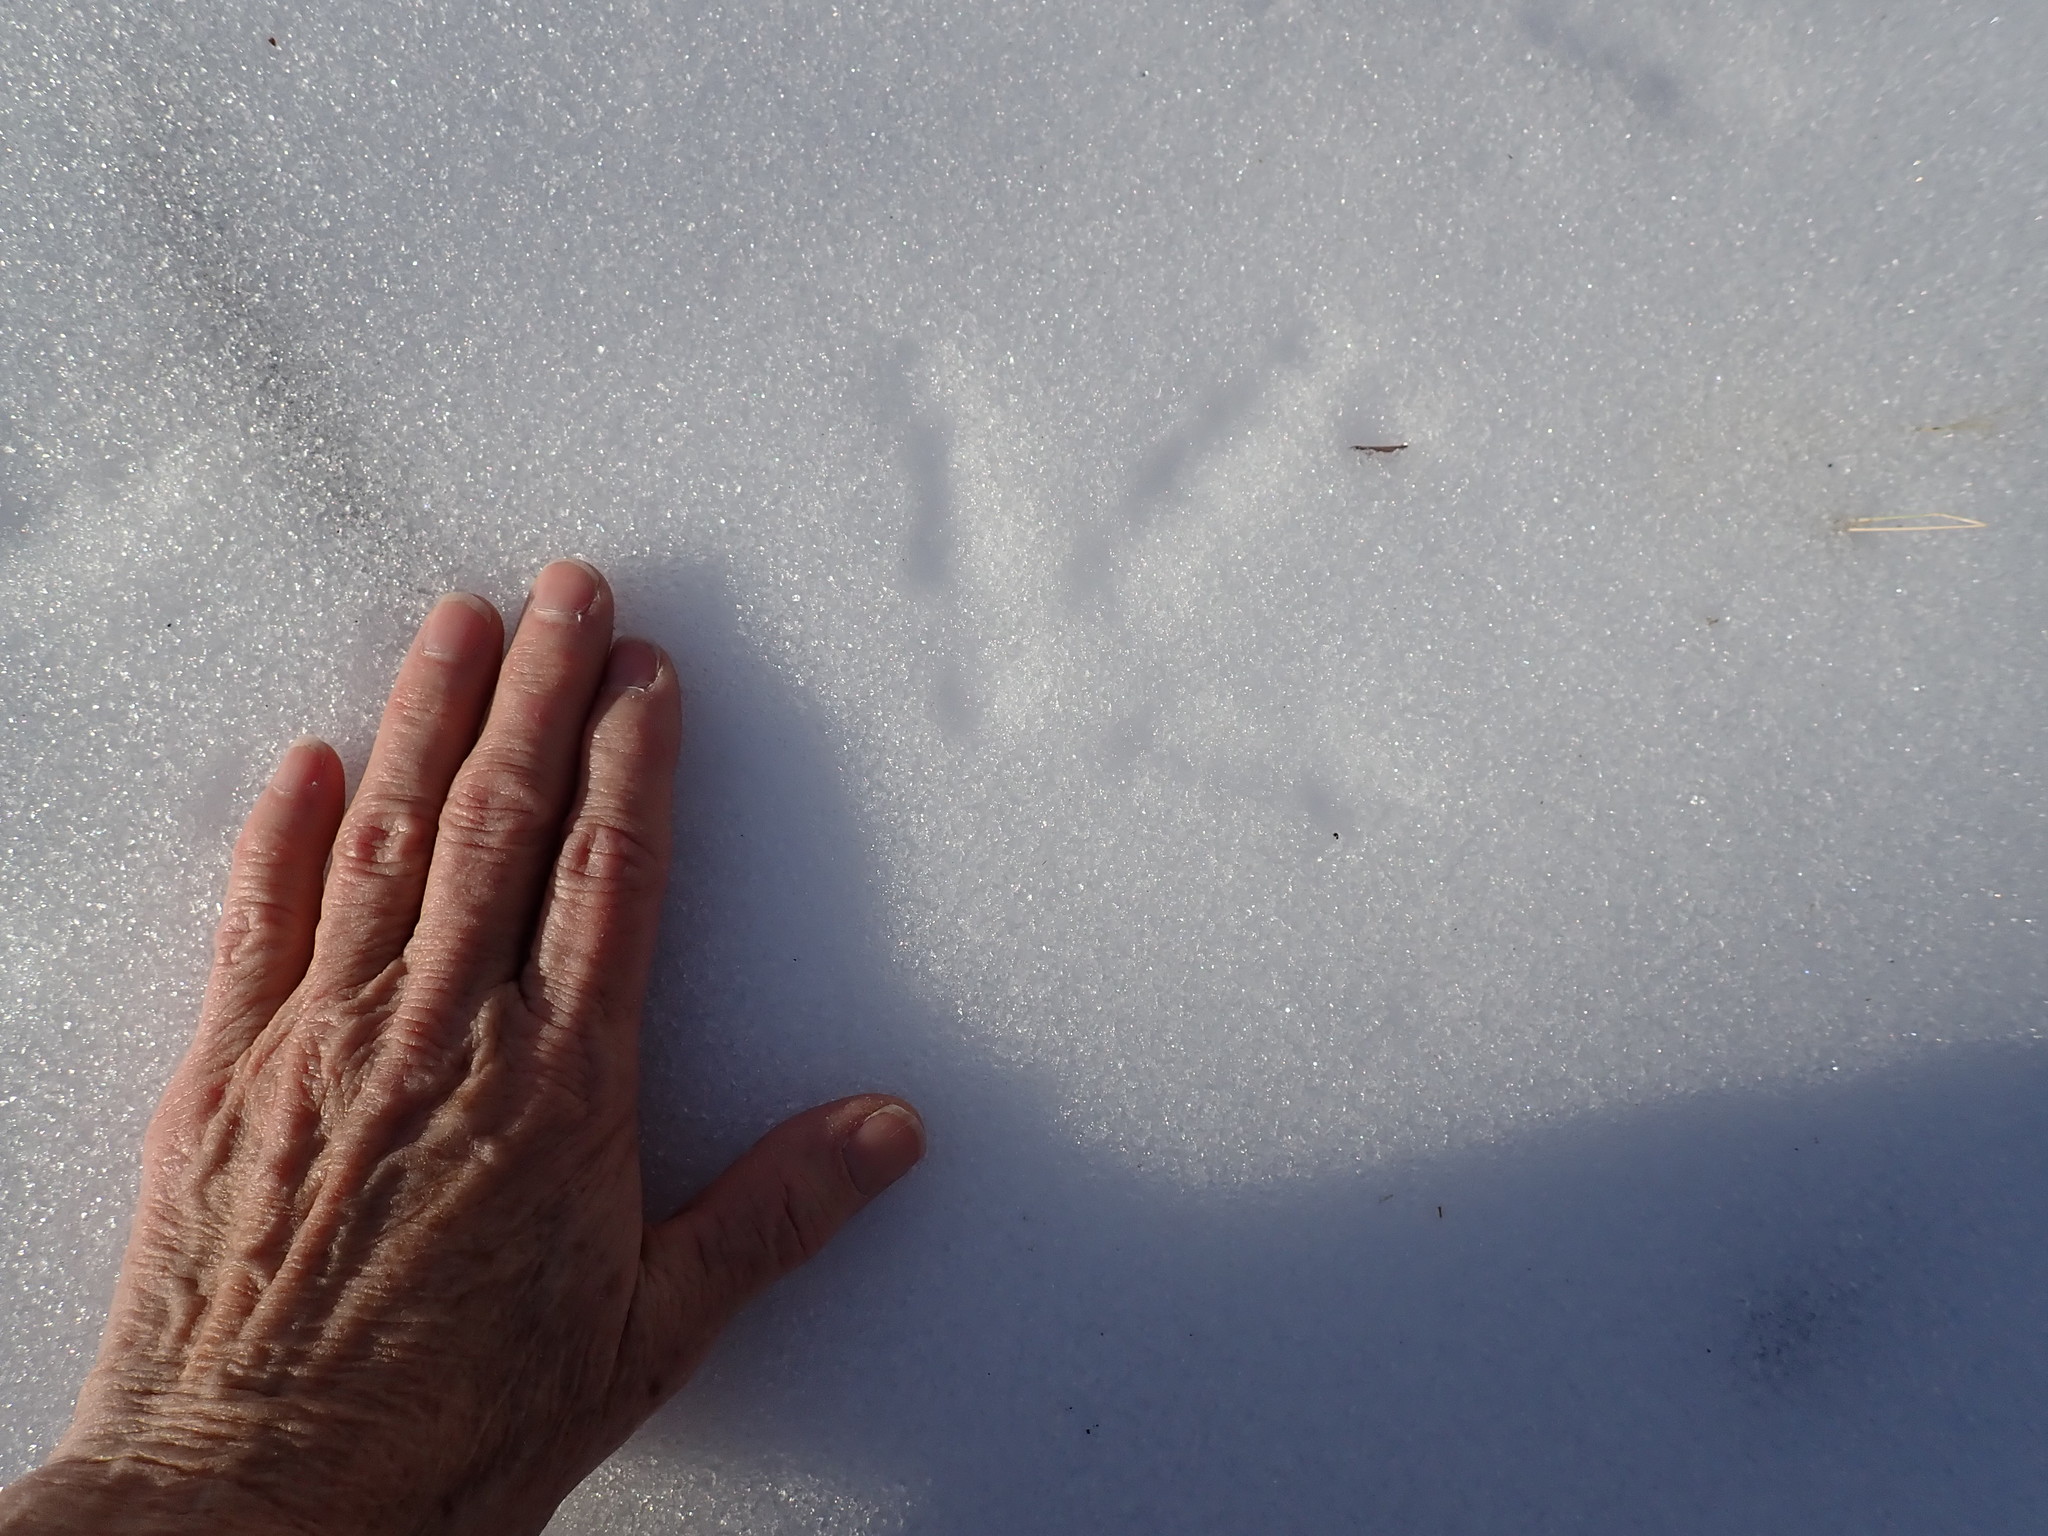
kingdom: Animalia
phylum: Chordata
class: Aves
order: Galliformes
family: Phasianidae
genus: Meleagris
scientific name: Meleagris gallopavo
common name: Wild turkey
